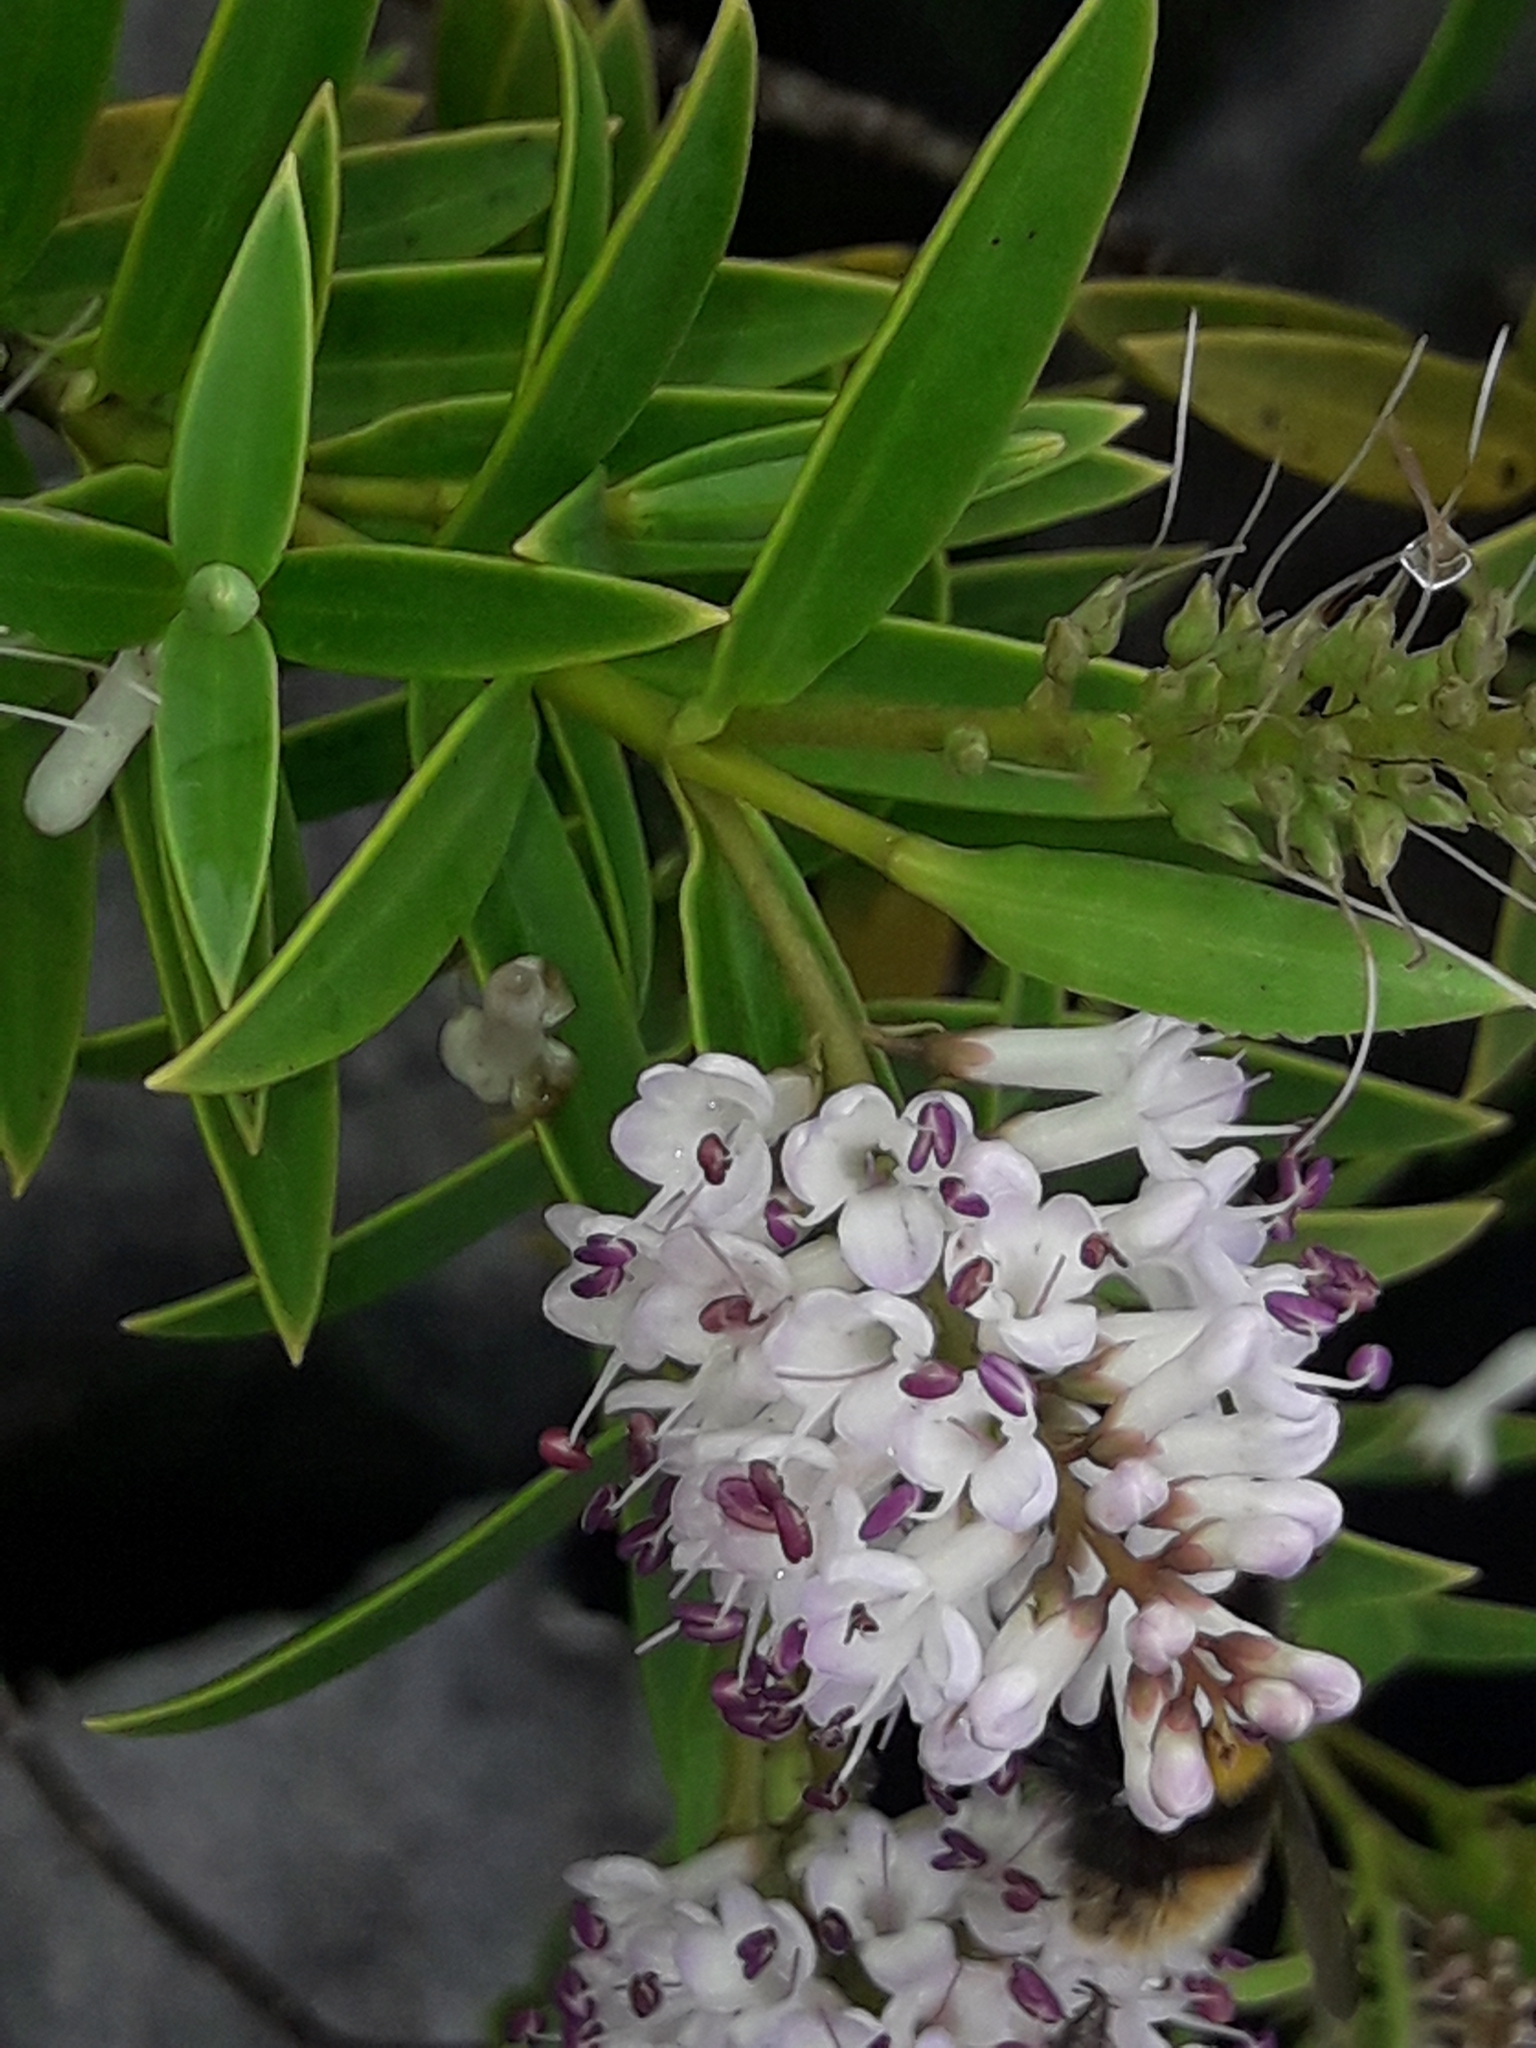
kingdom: Plantae
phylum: Tracheophyta
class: Magnoliopsida
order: Lamiales
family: Plantaginaceae
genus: Veronica
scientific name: Veronica albicans
